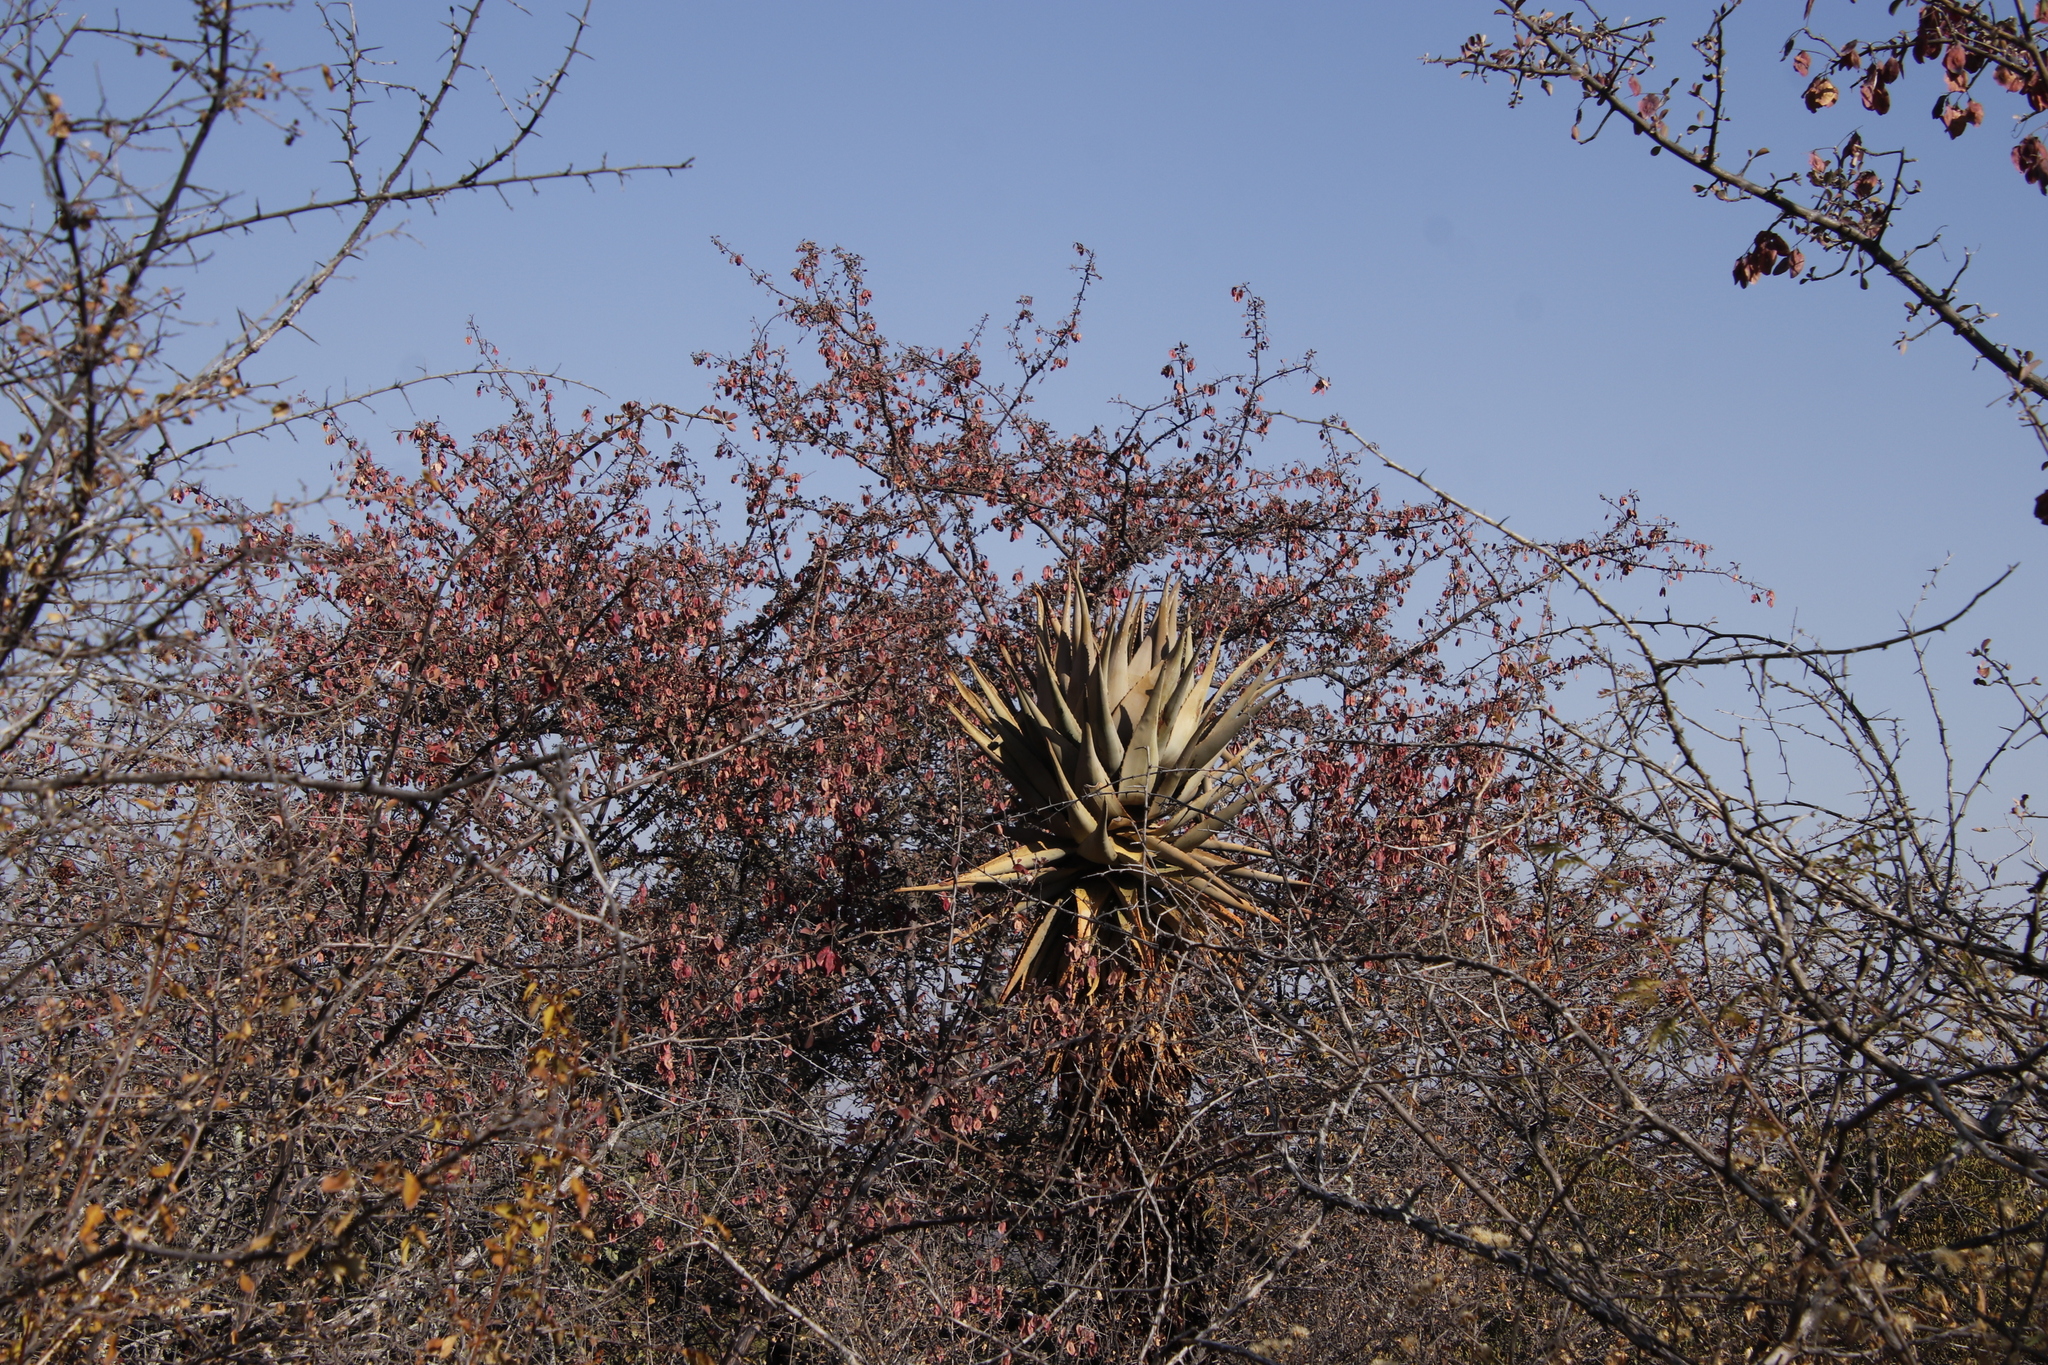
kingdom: Plantae
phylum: Tracheophyta
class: Magnoliopsida
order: Myrtales
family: Combretaceae
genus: Terminalia
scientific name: Terminalia prunioides
